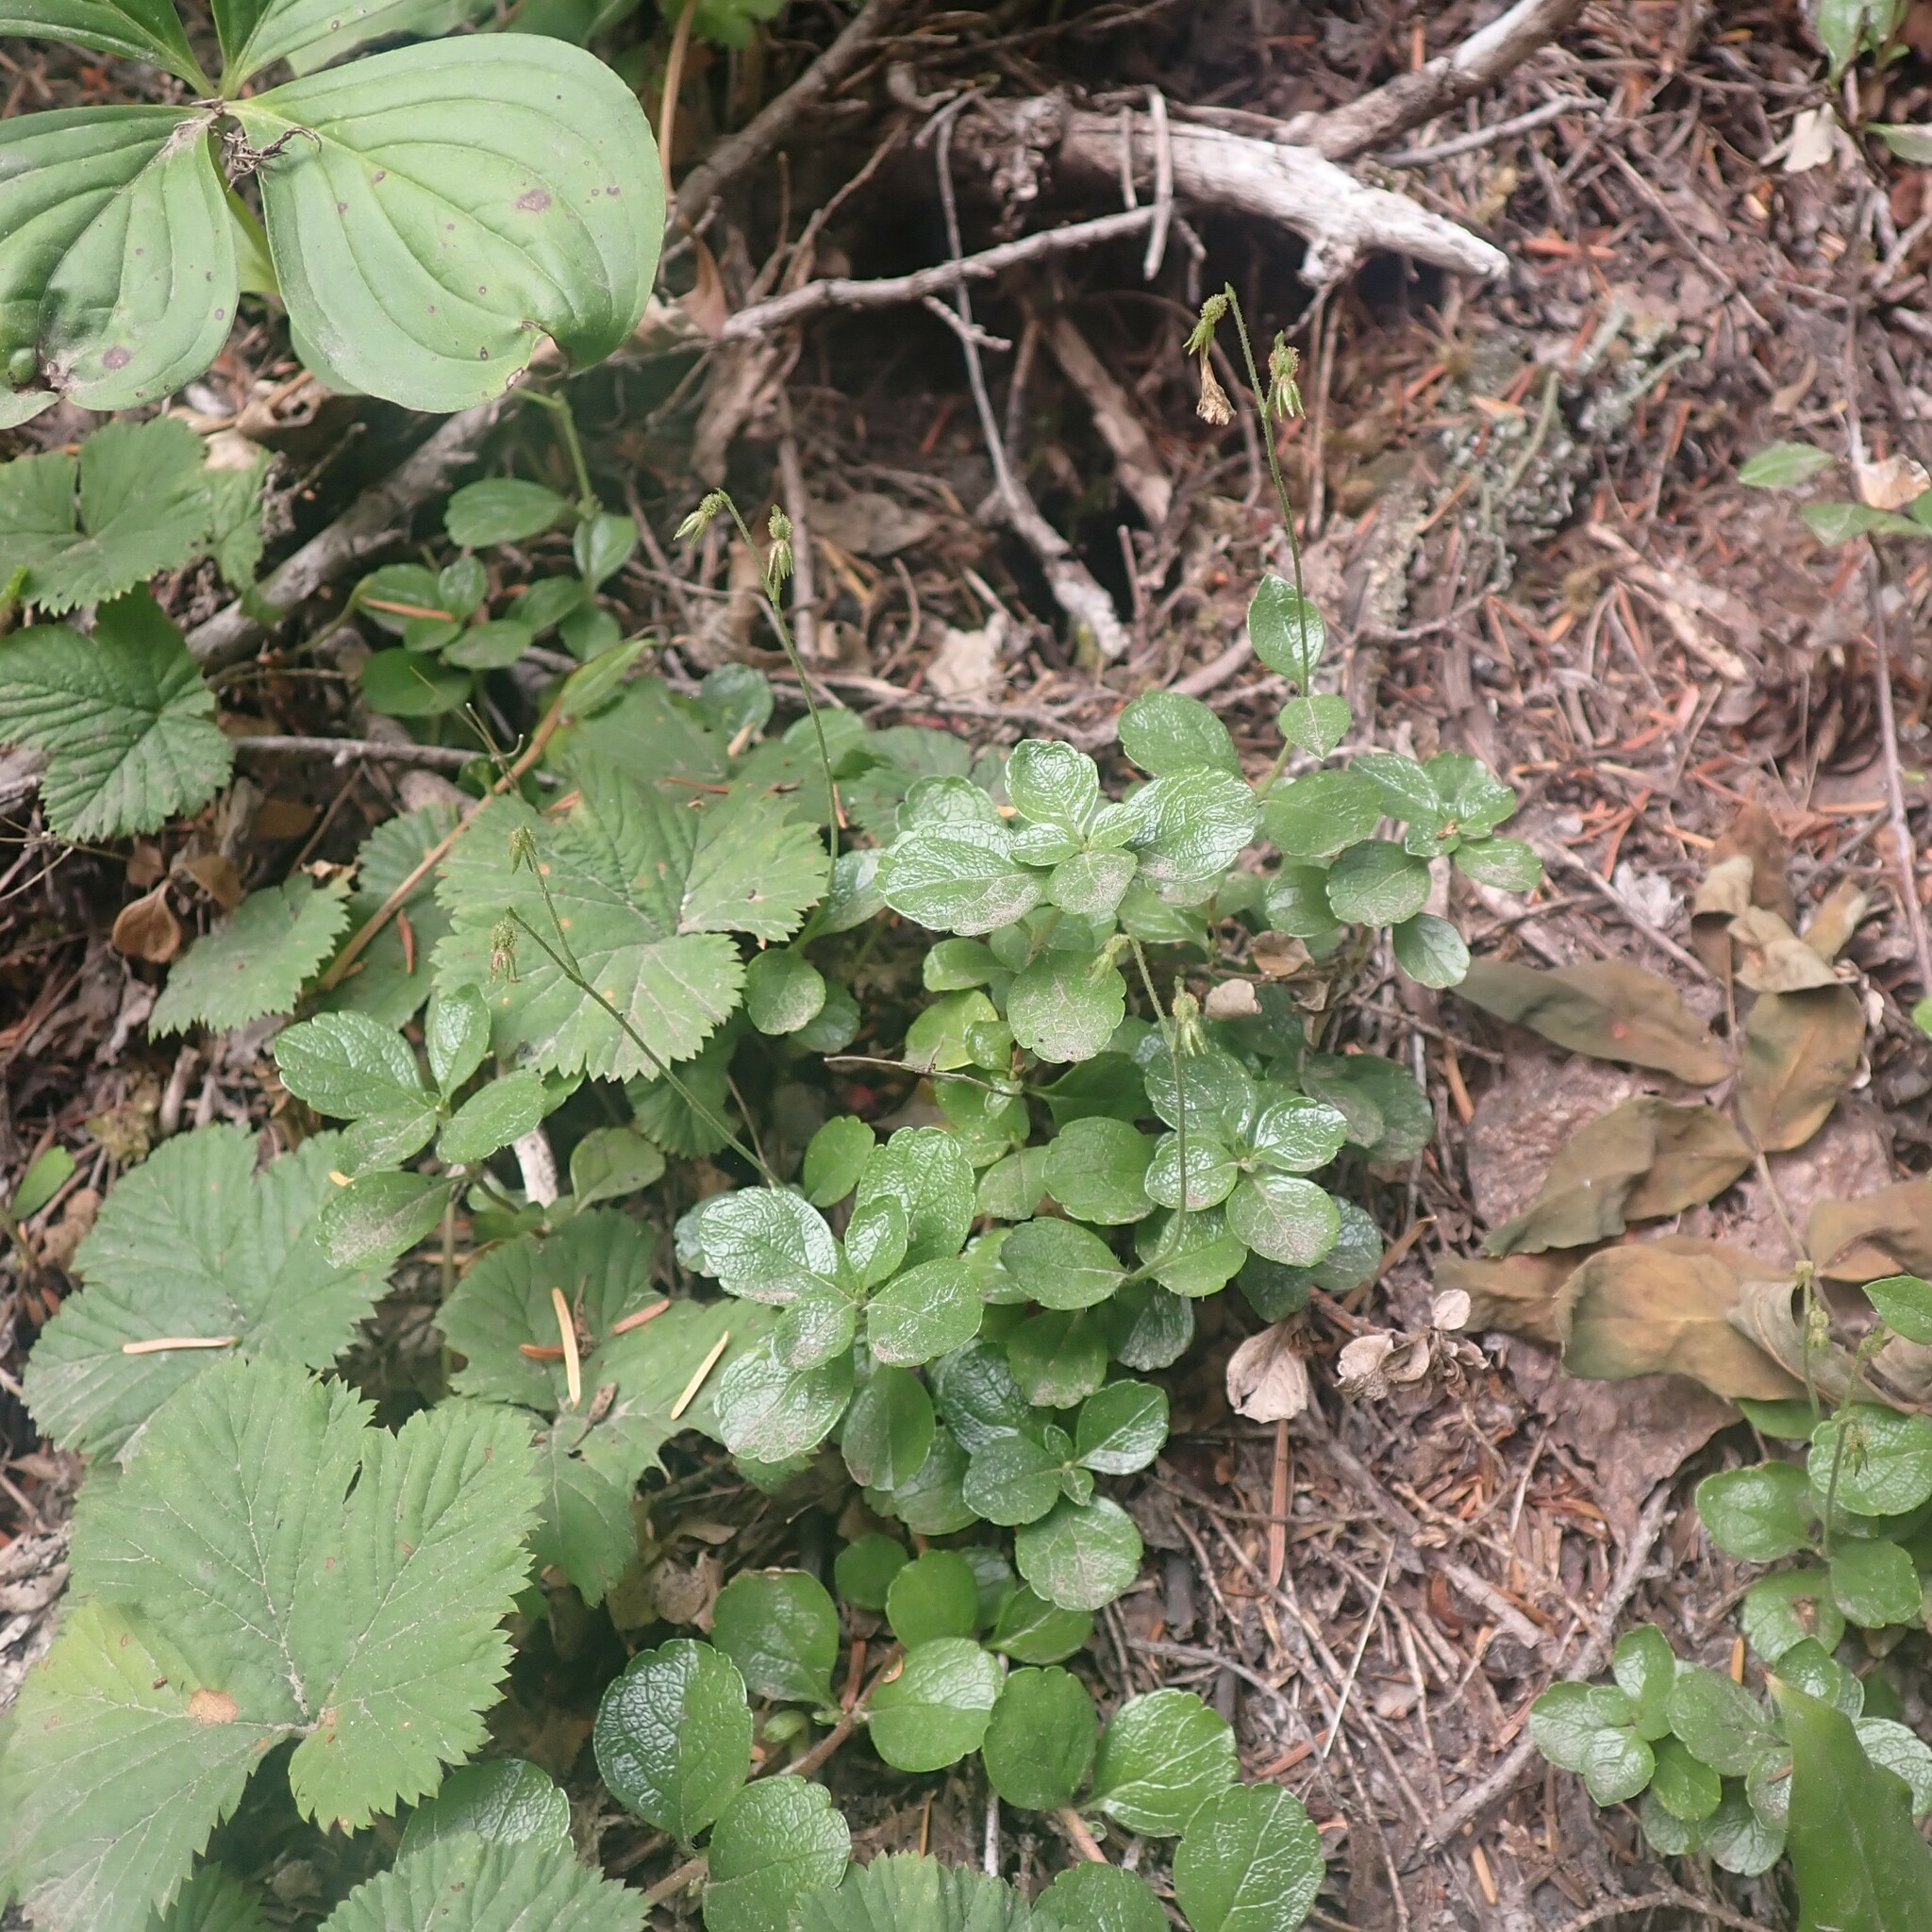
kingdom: Plantae
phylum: Tracheophyta
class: Magnoliopsida
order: Dipsacales
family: Caprifoliaceae
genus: Linnaea
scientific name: Linnaea borealis
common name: Twinflower
